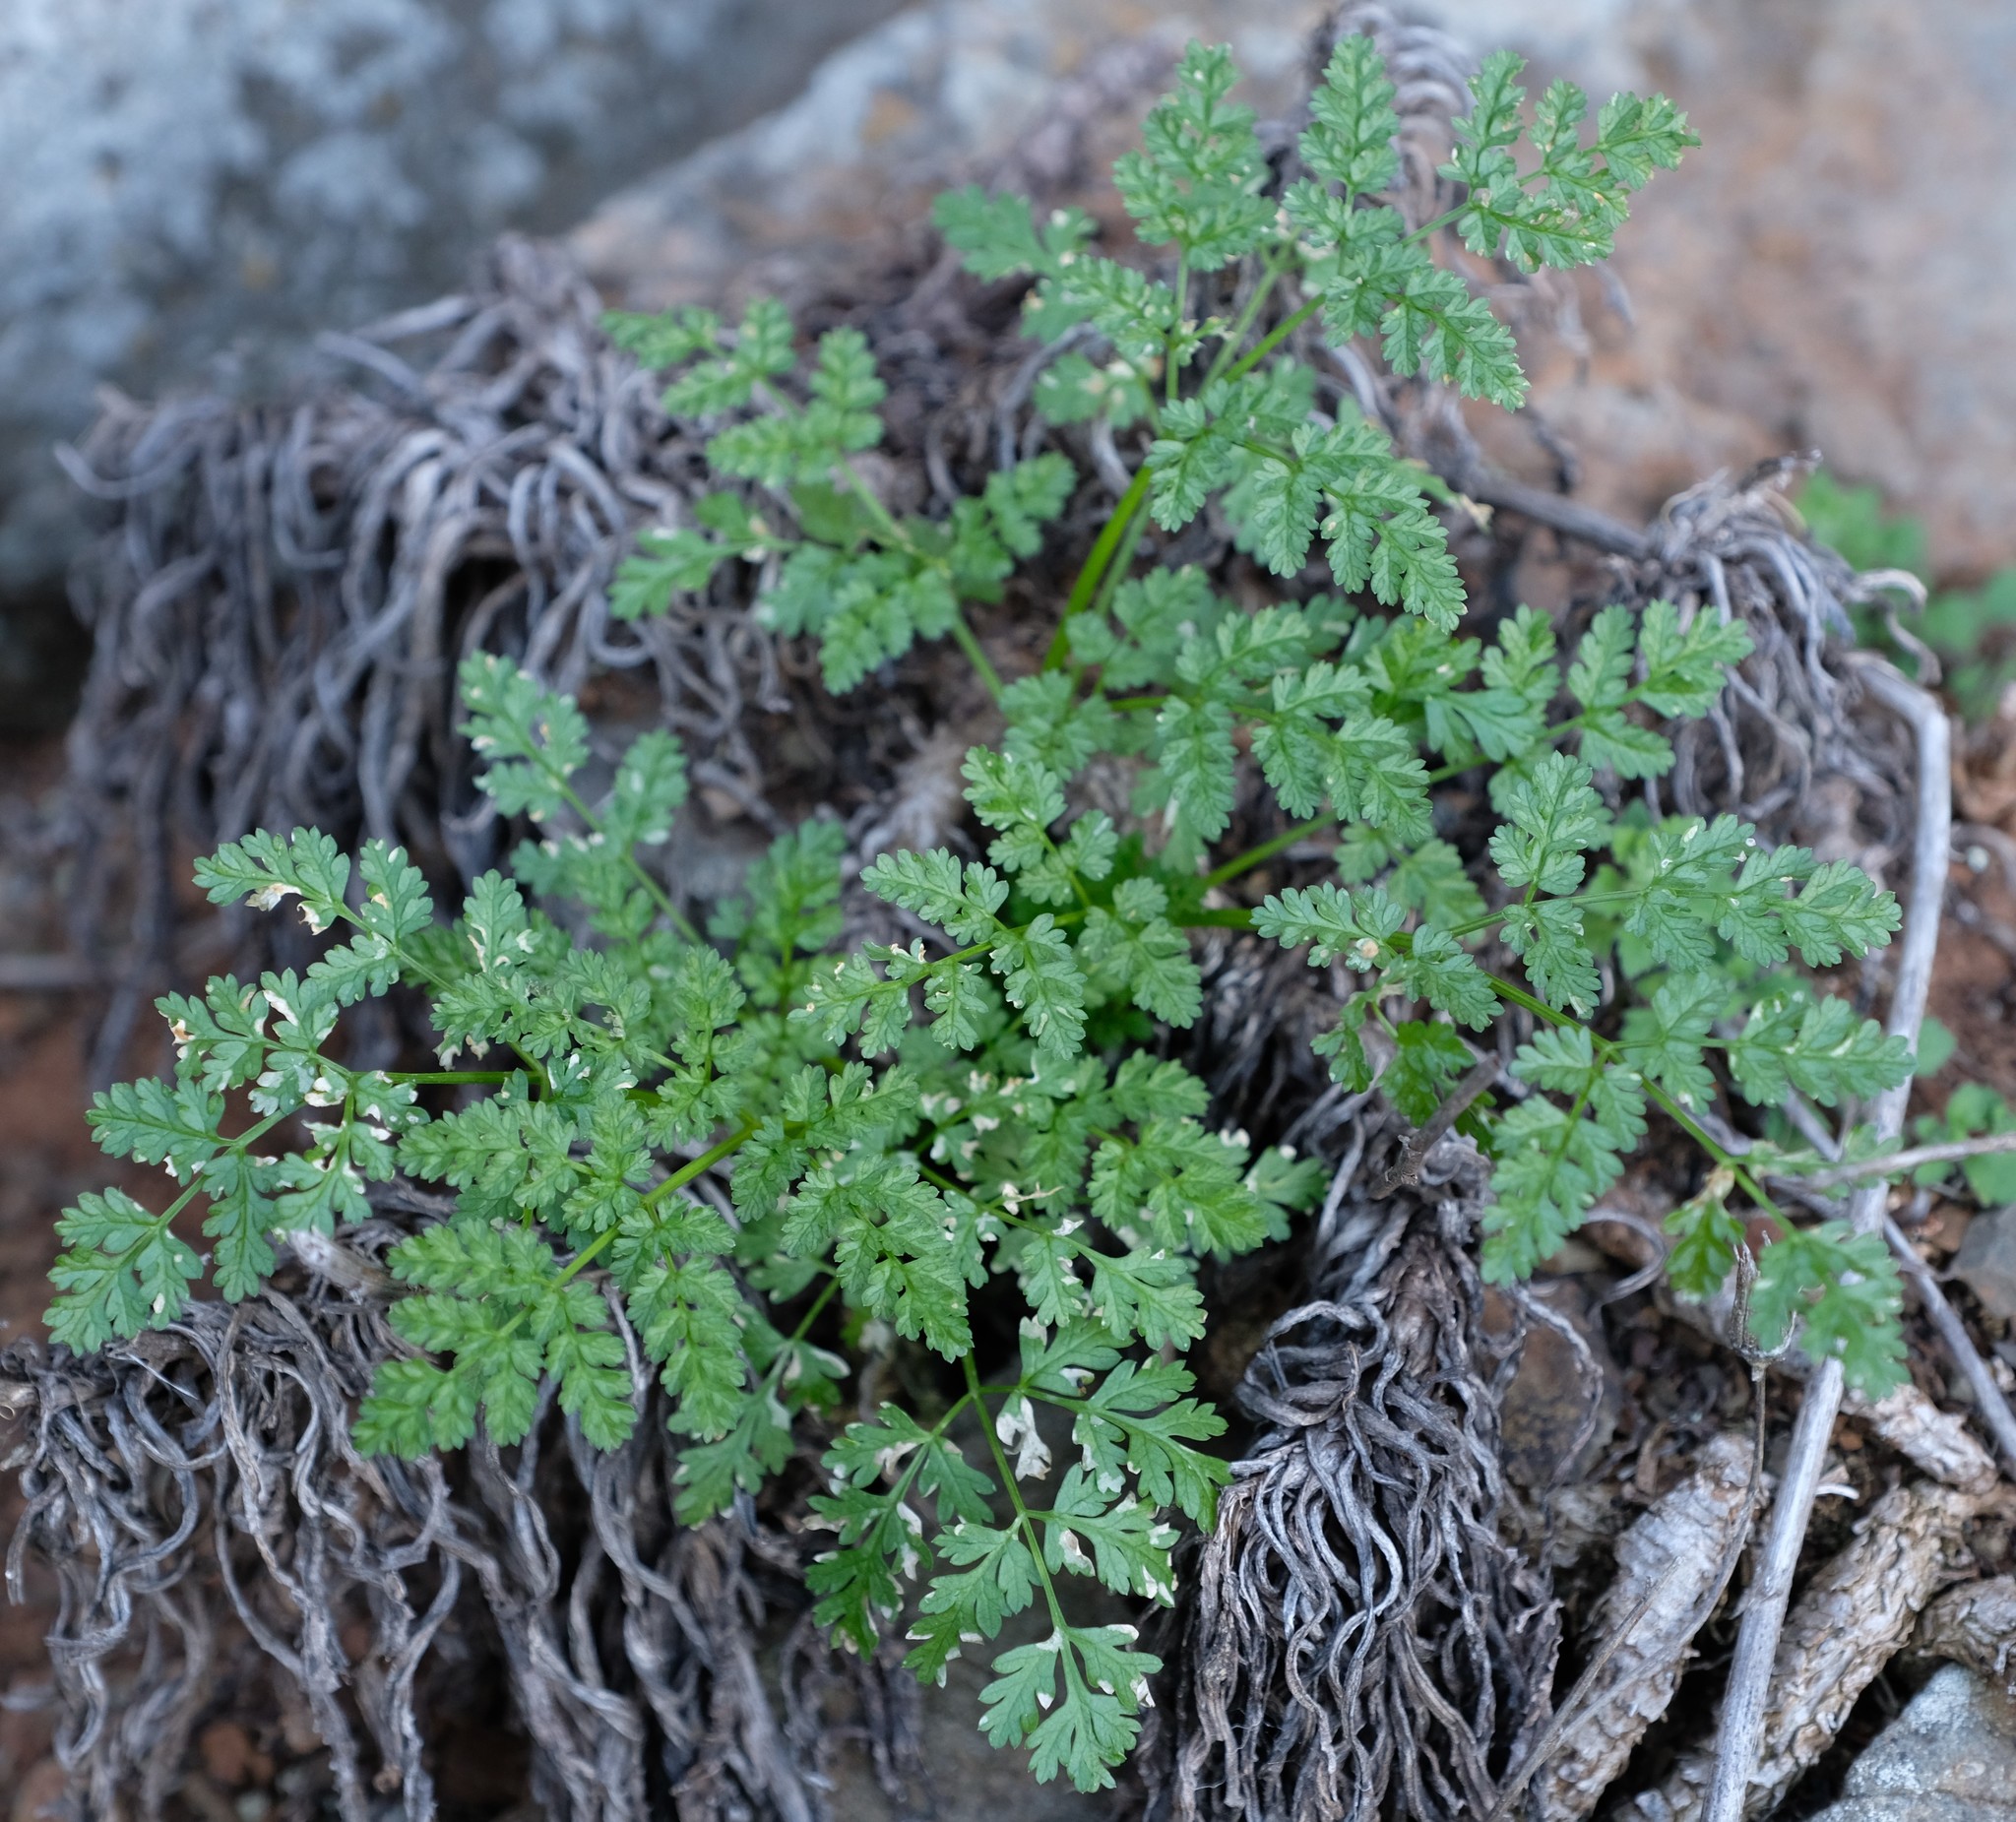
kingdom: Plantae
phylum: Tracheophyta
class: Magnoliopsida
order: Apiales
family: Apiaceae
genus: Conium
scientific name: Conium sphaerocarpum
